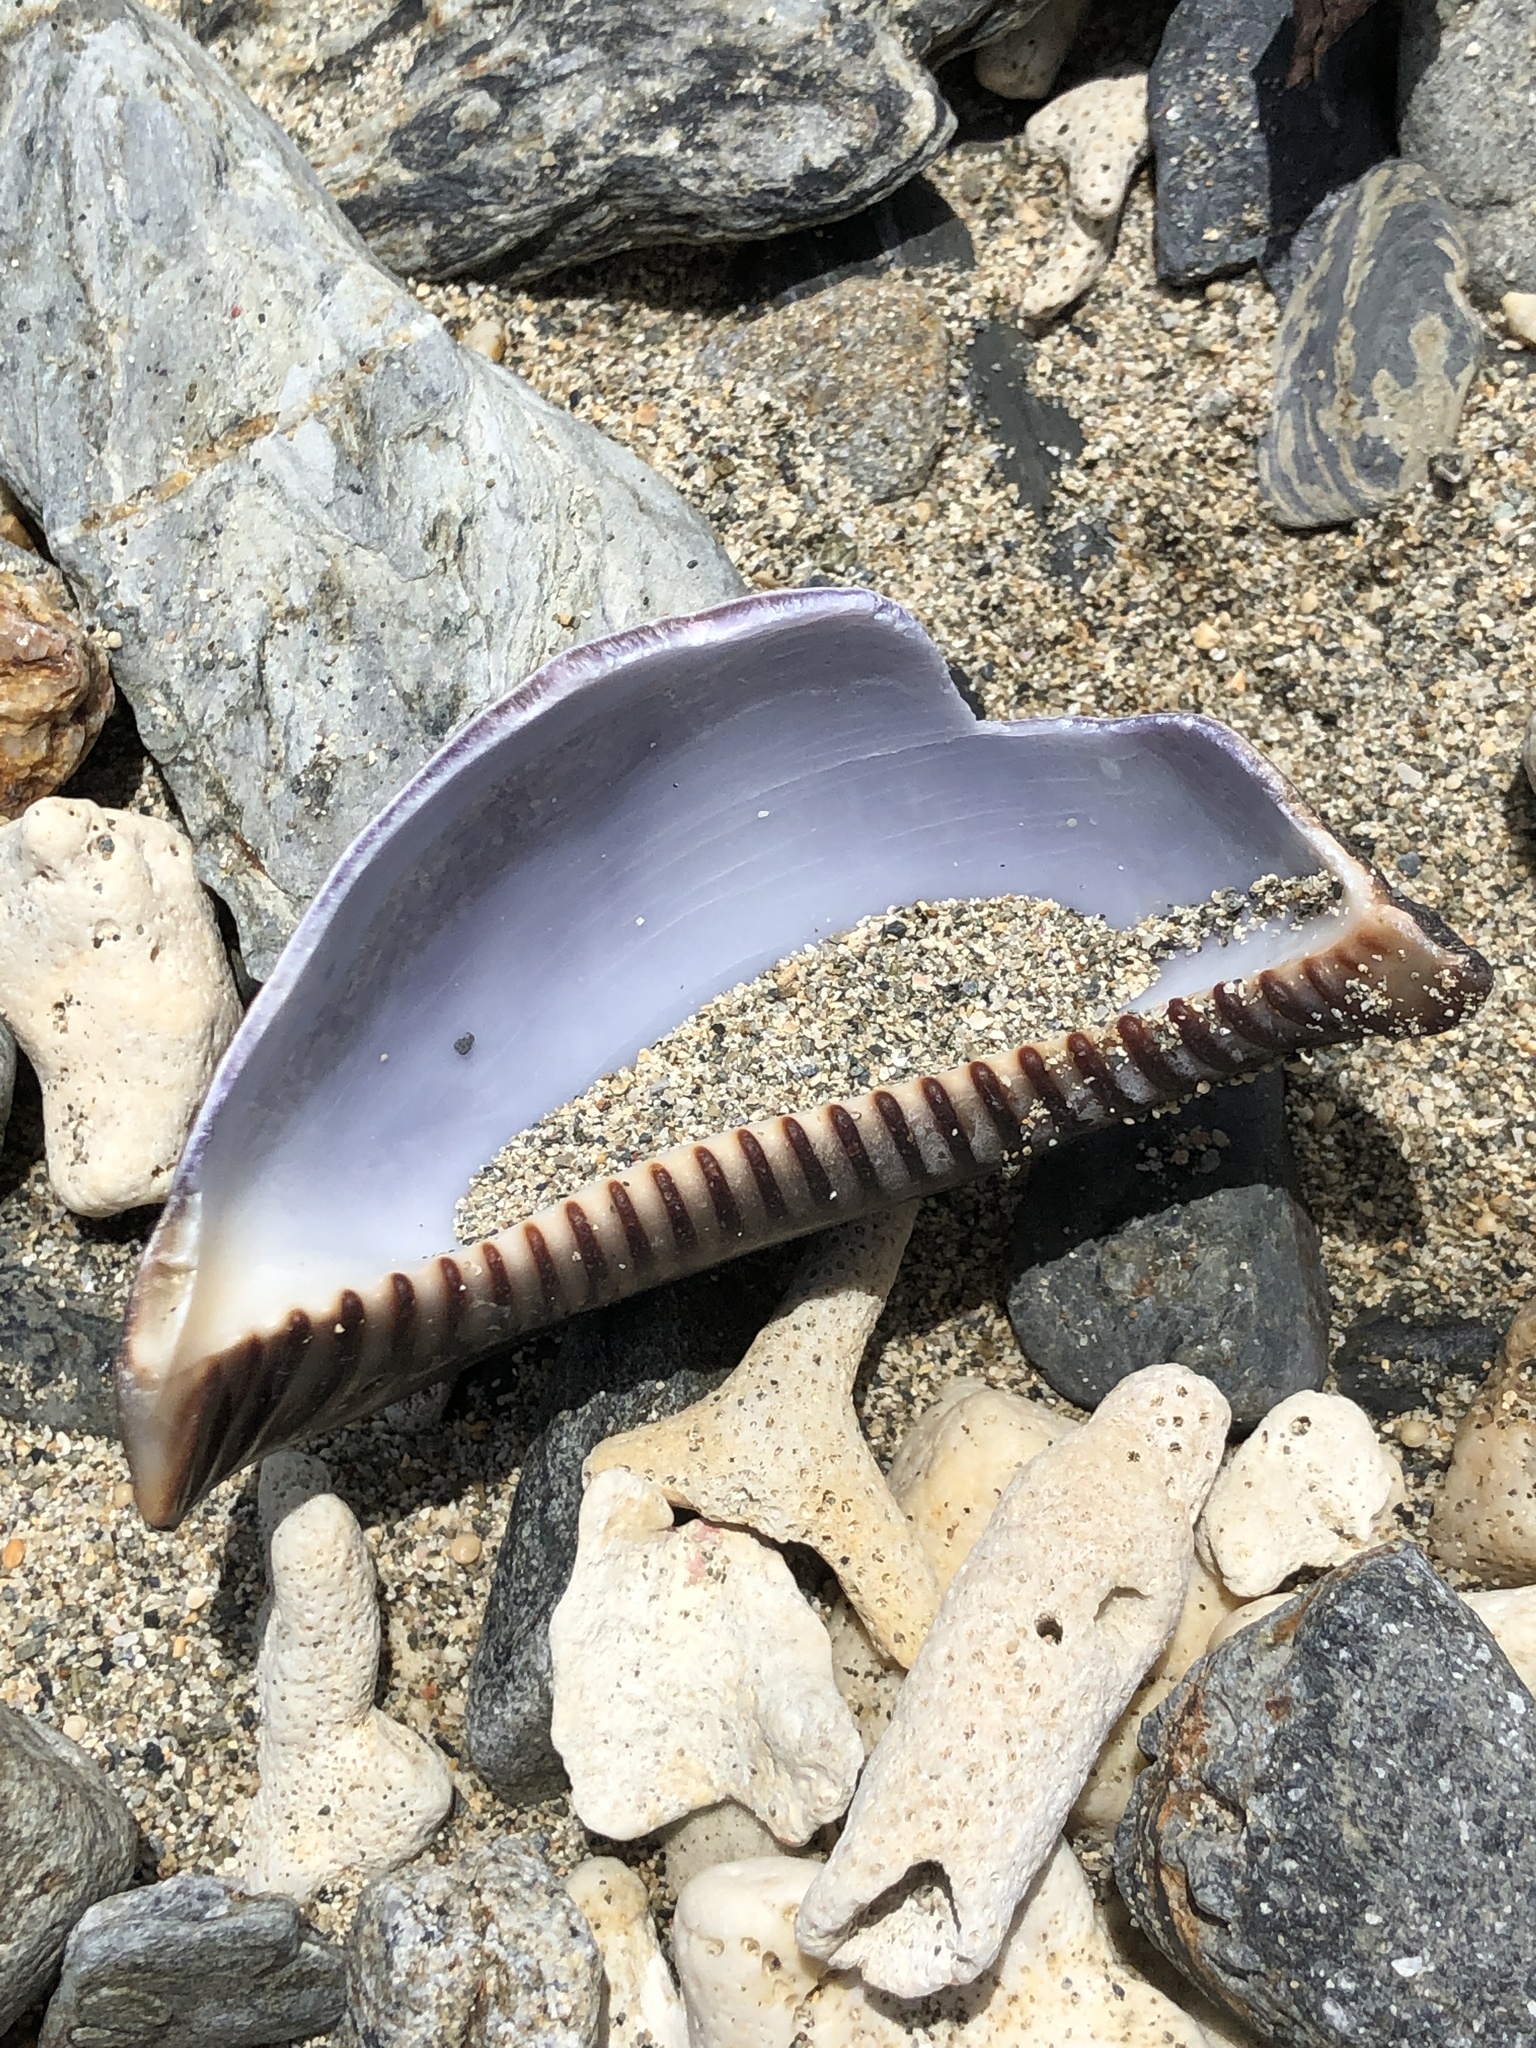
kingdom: Animalia
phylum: Mollusca
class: Gastropoda
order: Littorinimorpha
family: Cypraeidae
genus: Mauritia
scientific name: Mauritia mauritiana
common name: Hump-backed cowrie
